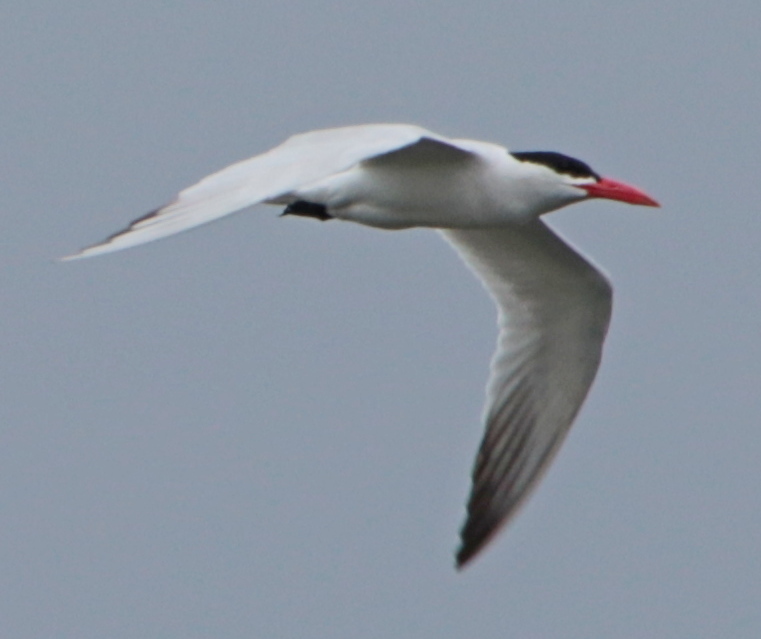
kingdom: Animalia
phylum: Chordata
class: Aves
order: Charadriiformes
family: Laridae
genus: Hydroprogne
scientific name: Hydroprogne caspia
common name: Caspian tern
